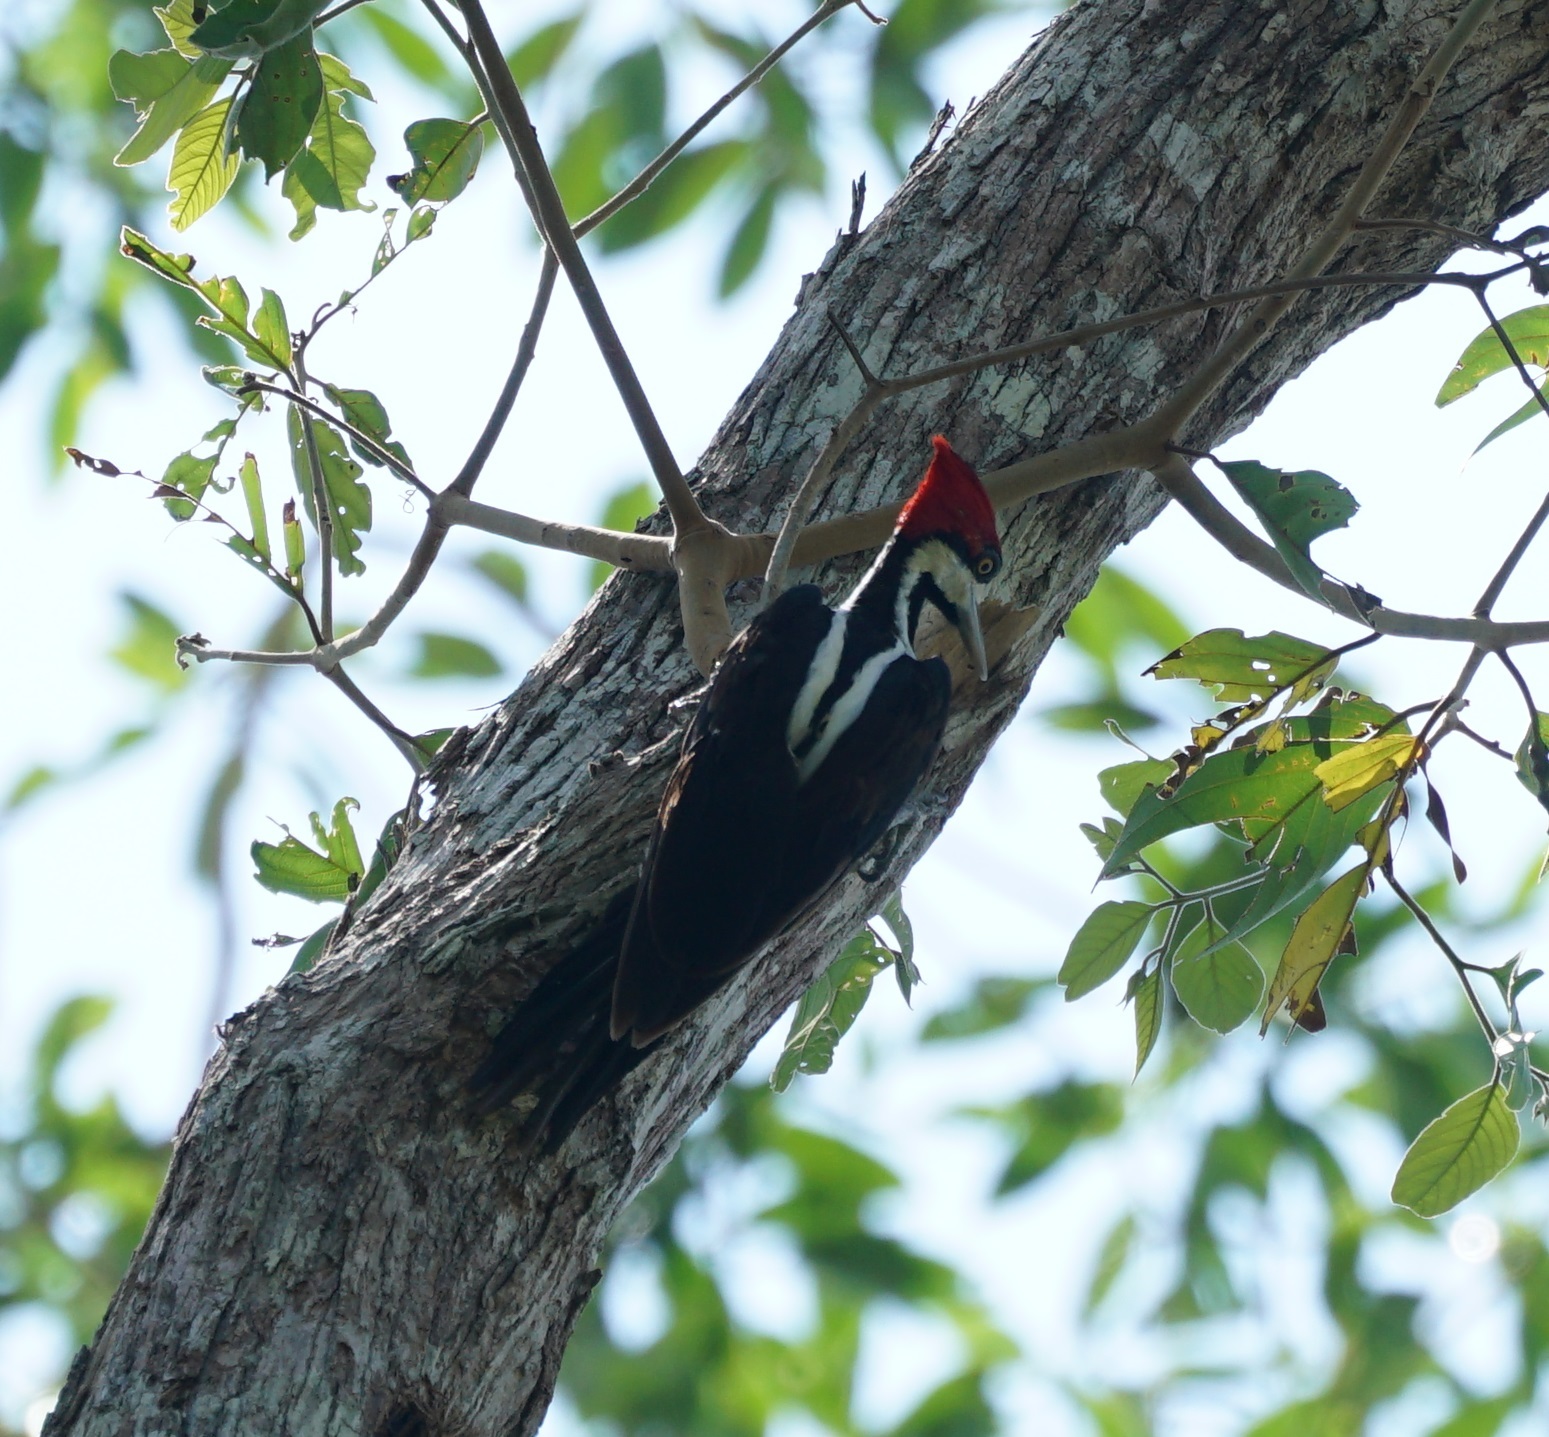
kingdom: Animalia
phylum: Chordata
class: Aves
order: Piciformes
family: Picidae
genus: Campephilus
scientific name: Campephilus melanoleucos
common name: Crimson-crested woodpecker
